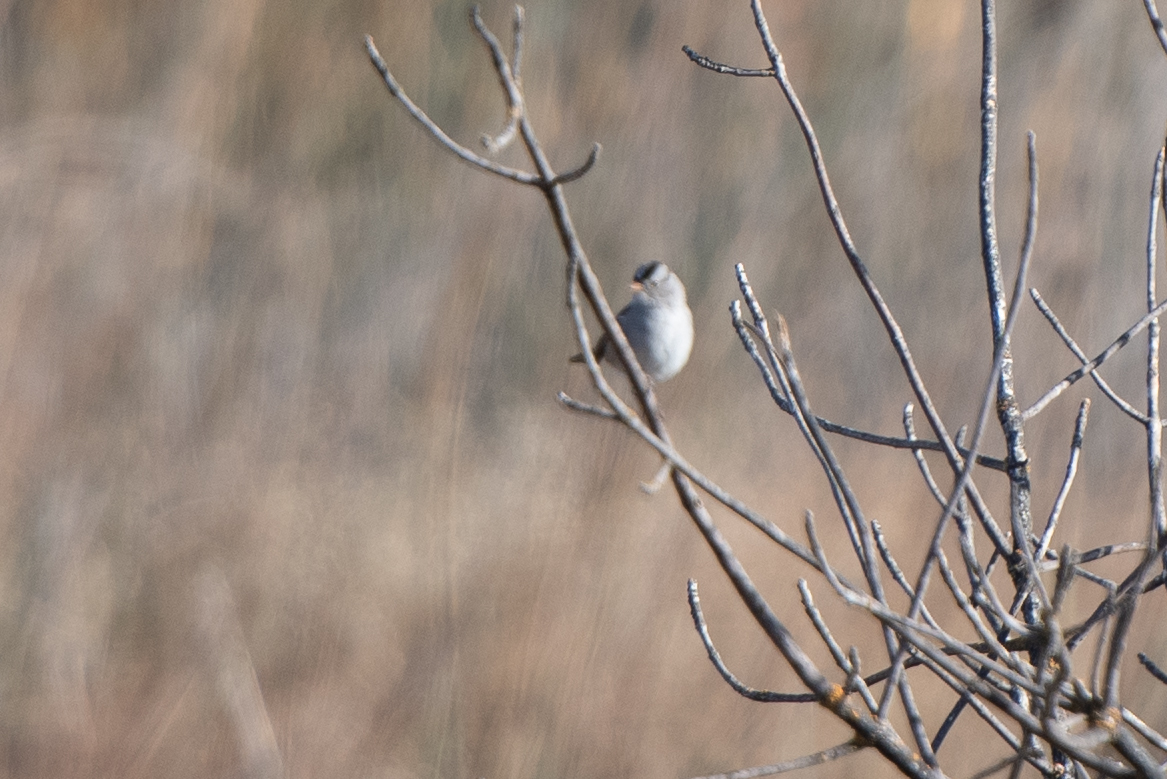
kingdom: Animalia
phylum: Chordata
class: Aves
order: Passeriformes
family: Passerellidae
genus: Zonotrichia
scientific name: Zonotrichia leucophrys
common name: White-crowned sparrow
